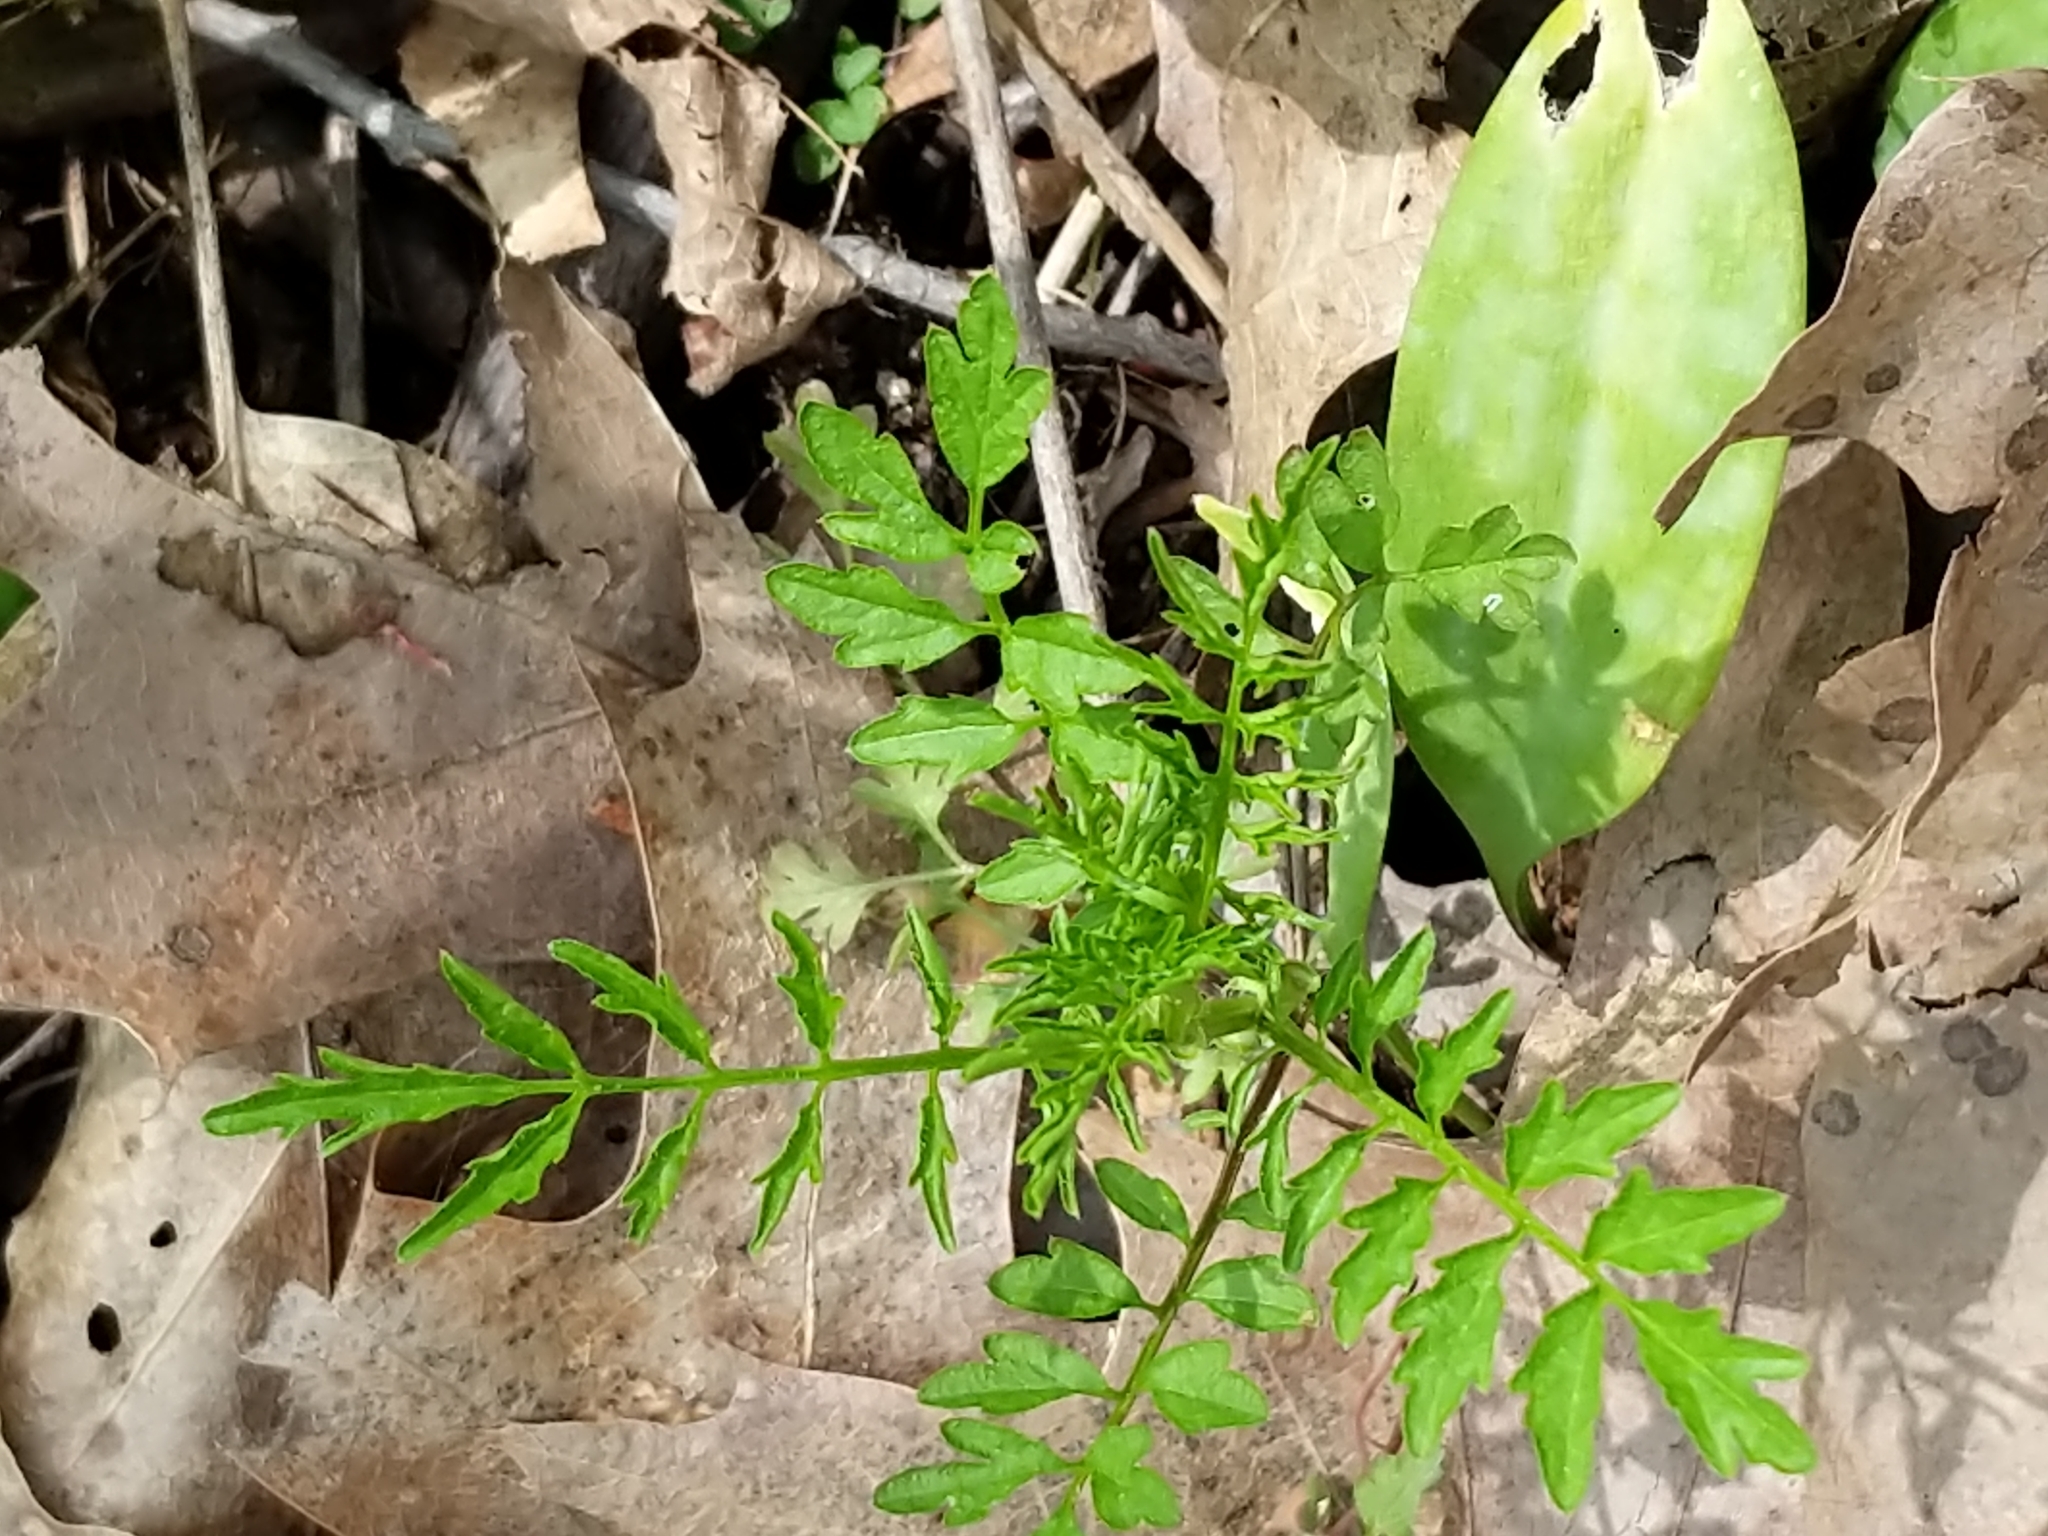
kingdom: Plantae
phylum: Tracheophyta
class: Magnoliopsida
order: Brassicales
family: Brassicaceae
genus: Cardamine
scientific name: Cardamine impatiens
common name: Narrow-leaved bitter-cress
